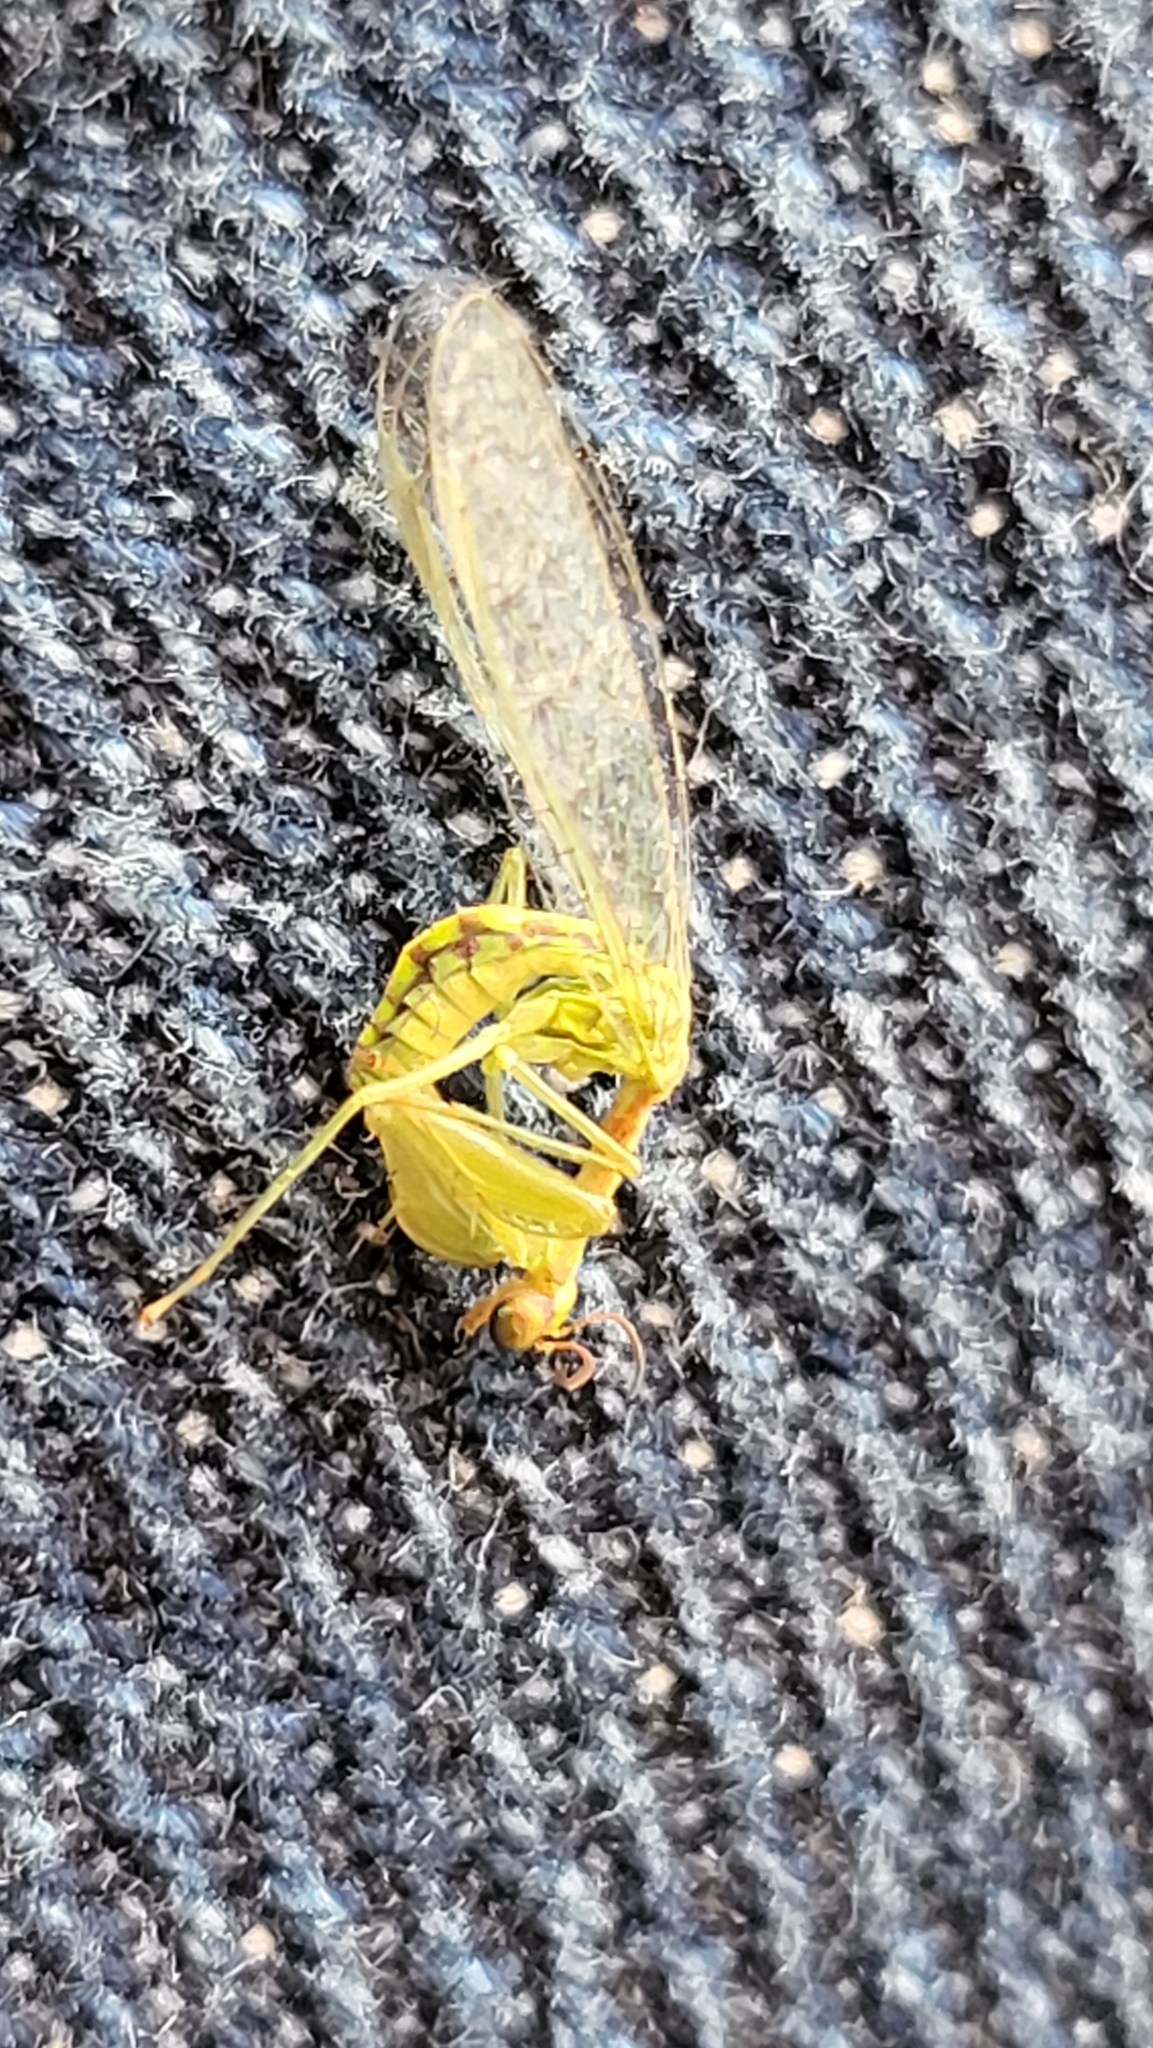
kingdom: Animalia
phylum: Arthropoda
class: Insecta
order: Neuroptera
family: Mantispidae
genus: Zeugomantispa
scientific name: Zeugomantispa minuta
